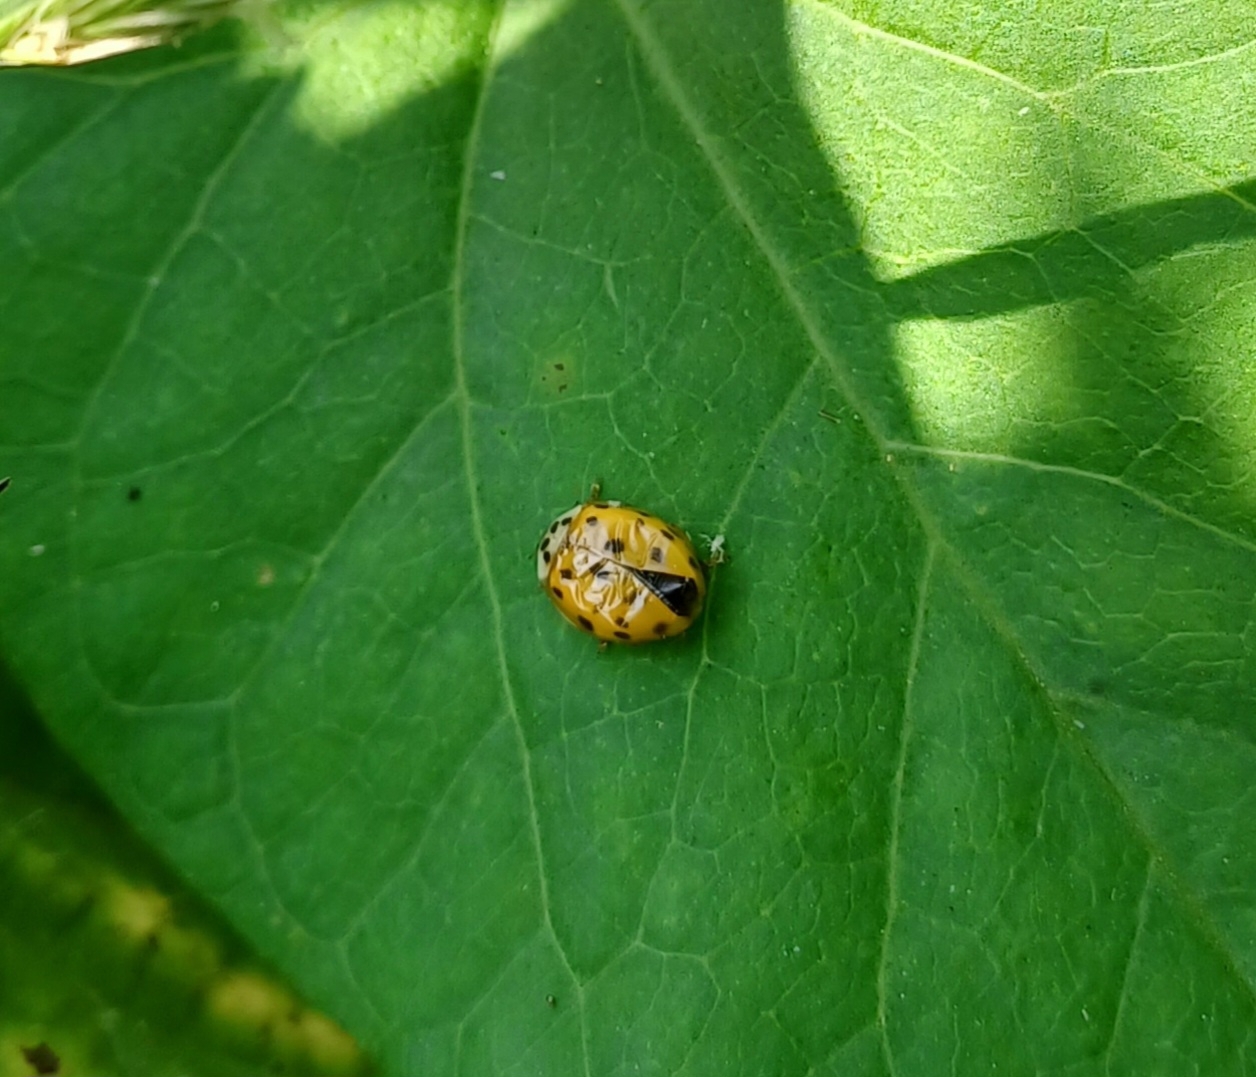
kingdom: Animalia
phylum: Arthropoda
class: Insecta
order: Coleoptera
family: Coccinellidae
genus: Harmonia
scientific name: Harmonia axyridis
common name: Harlequin ladybird
